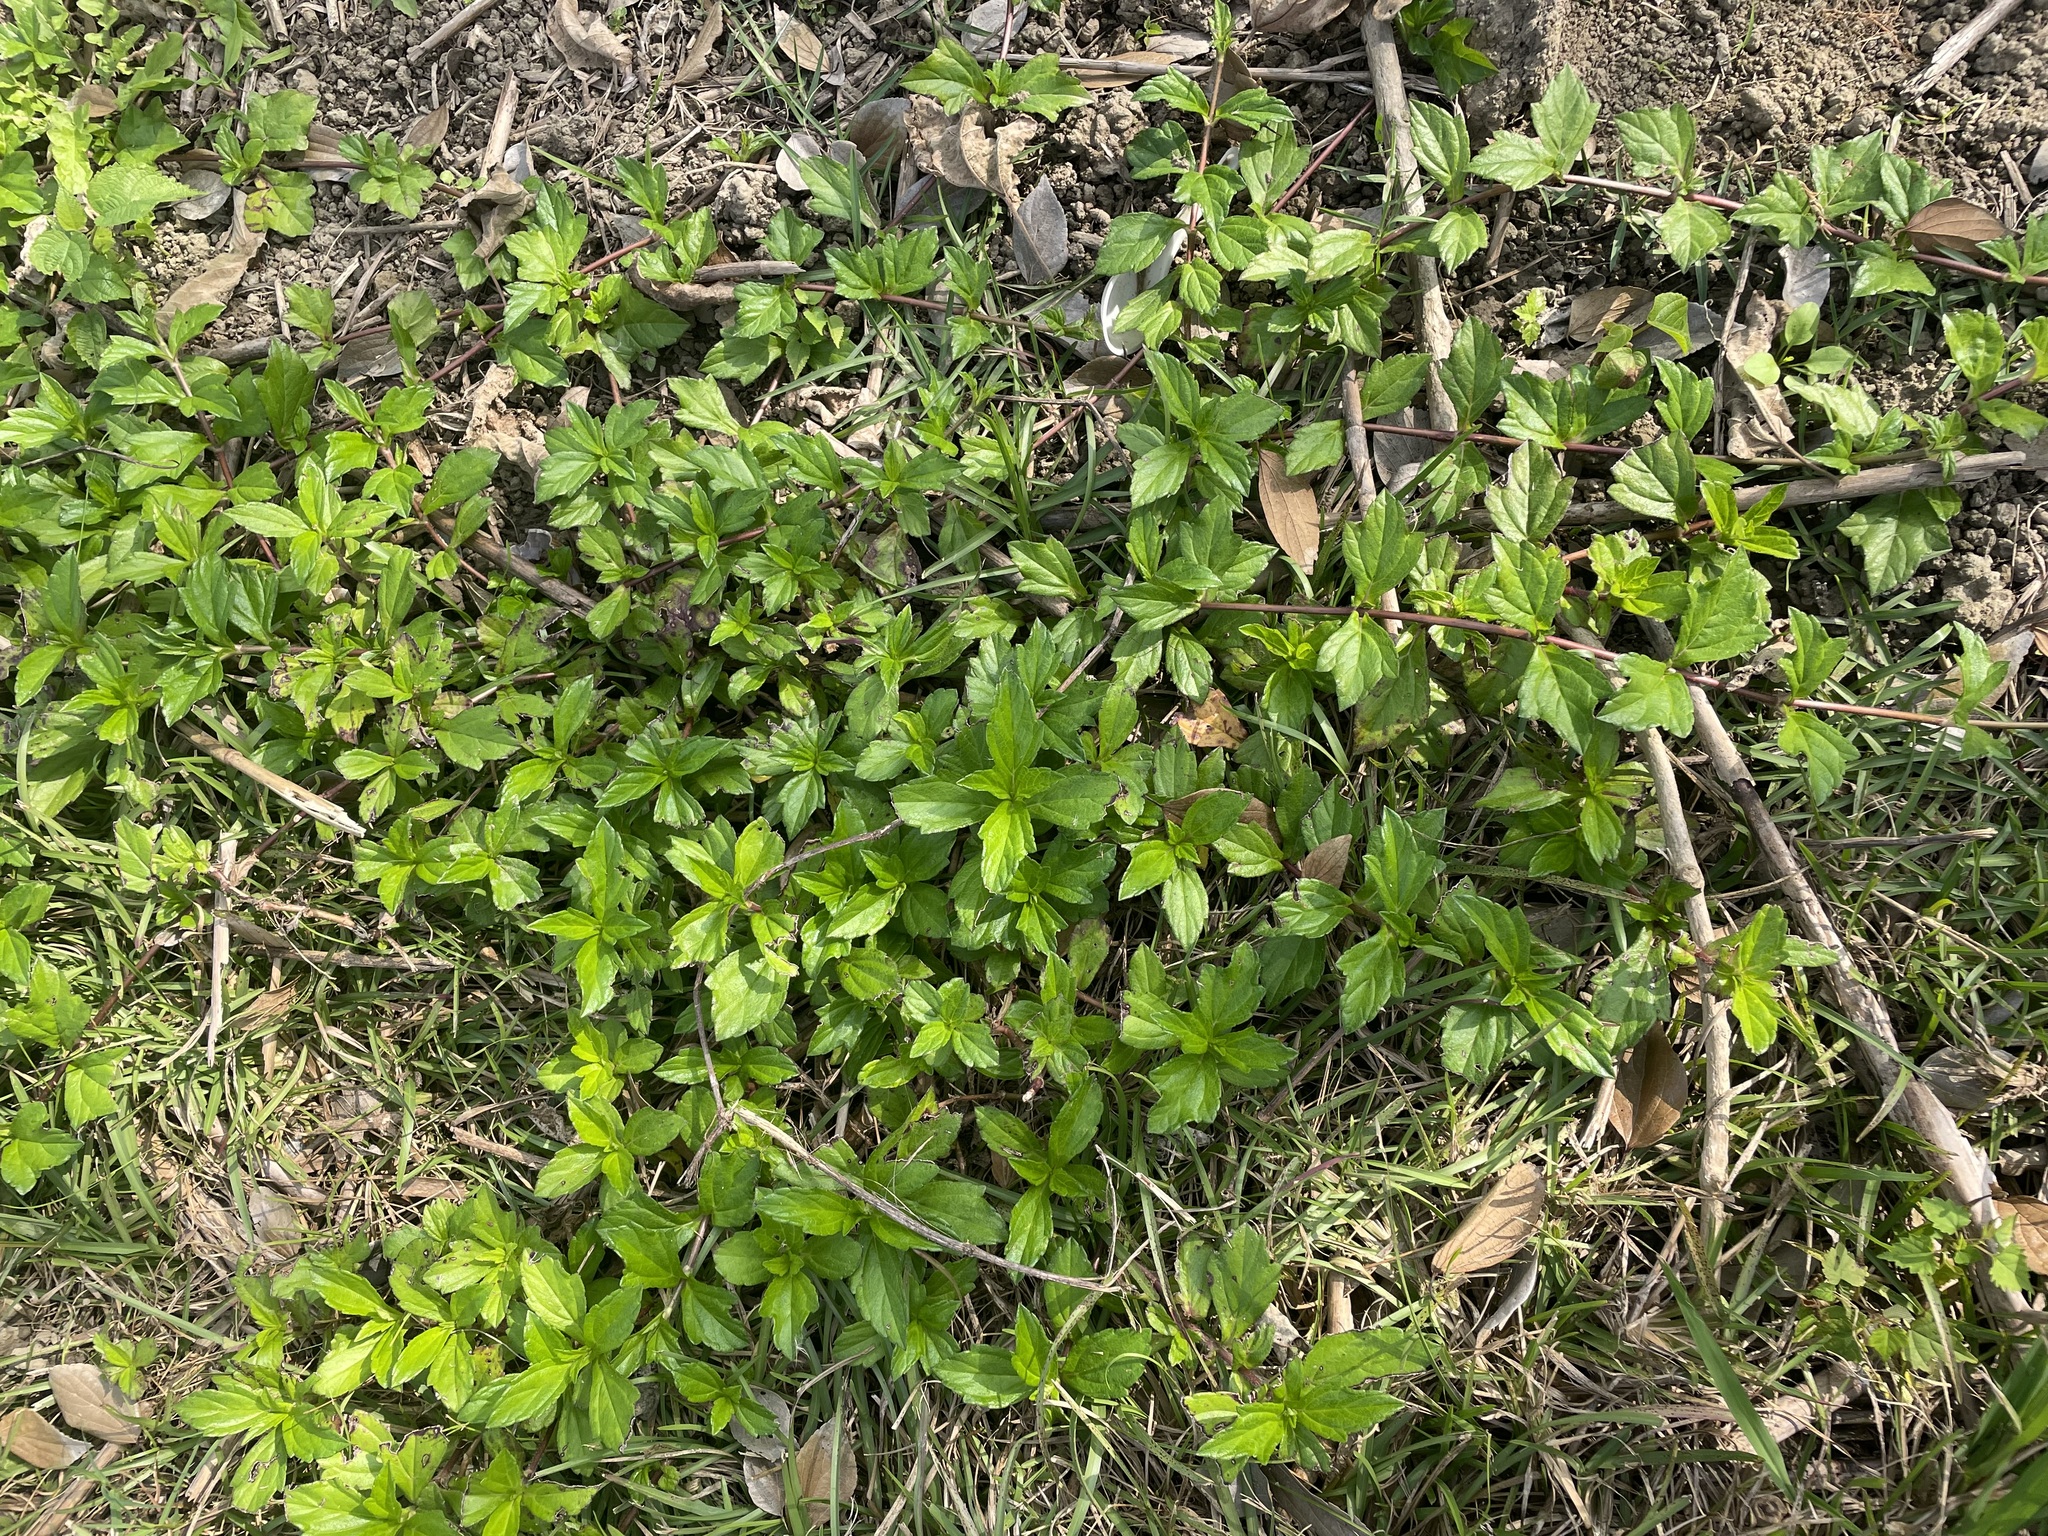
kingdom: Plantae
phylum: Tracheophyta
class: Magnoliopsida
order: Asterales
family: Asteraceae
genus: Sphagneticola
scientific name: Sphagneticola trilobata
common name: Bay biscayne creeping-oxeye
